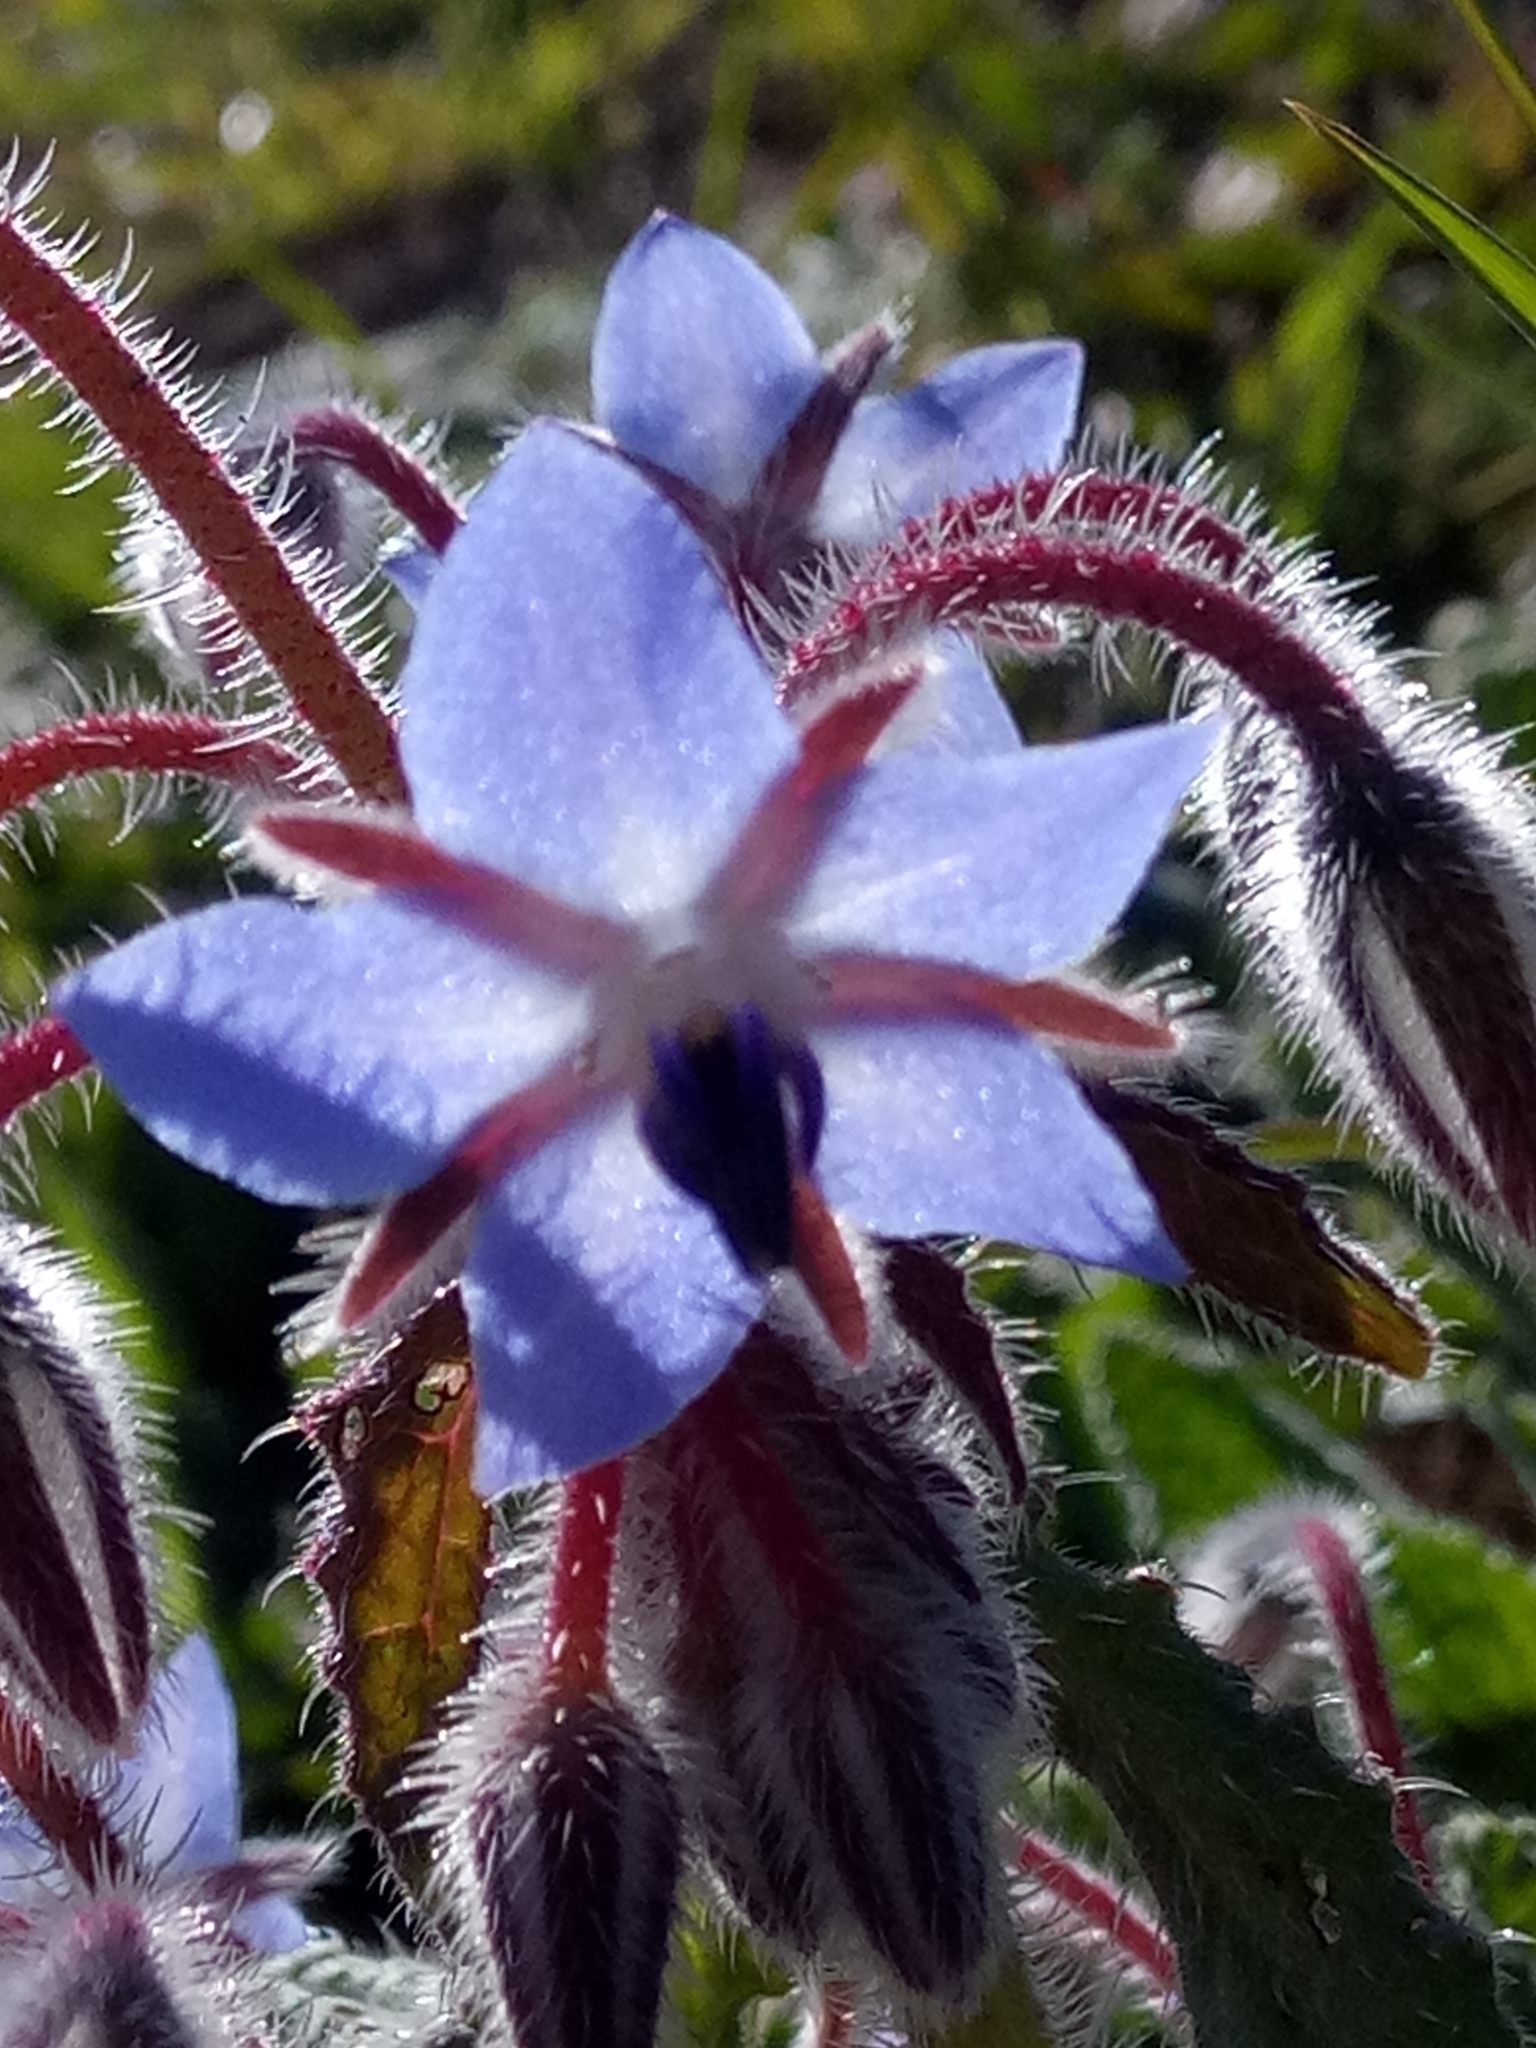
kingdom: Plantae
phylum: Tracheophyta
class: Magnoliopsida
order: Boraginales
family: Boraginaceae
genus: Borago
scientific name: Borago officinalis
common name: Borage
